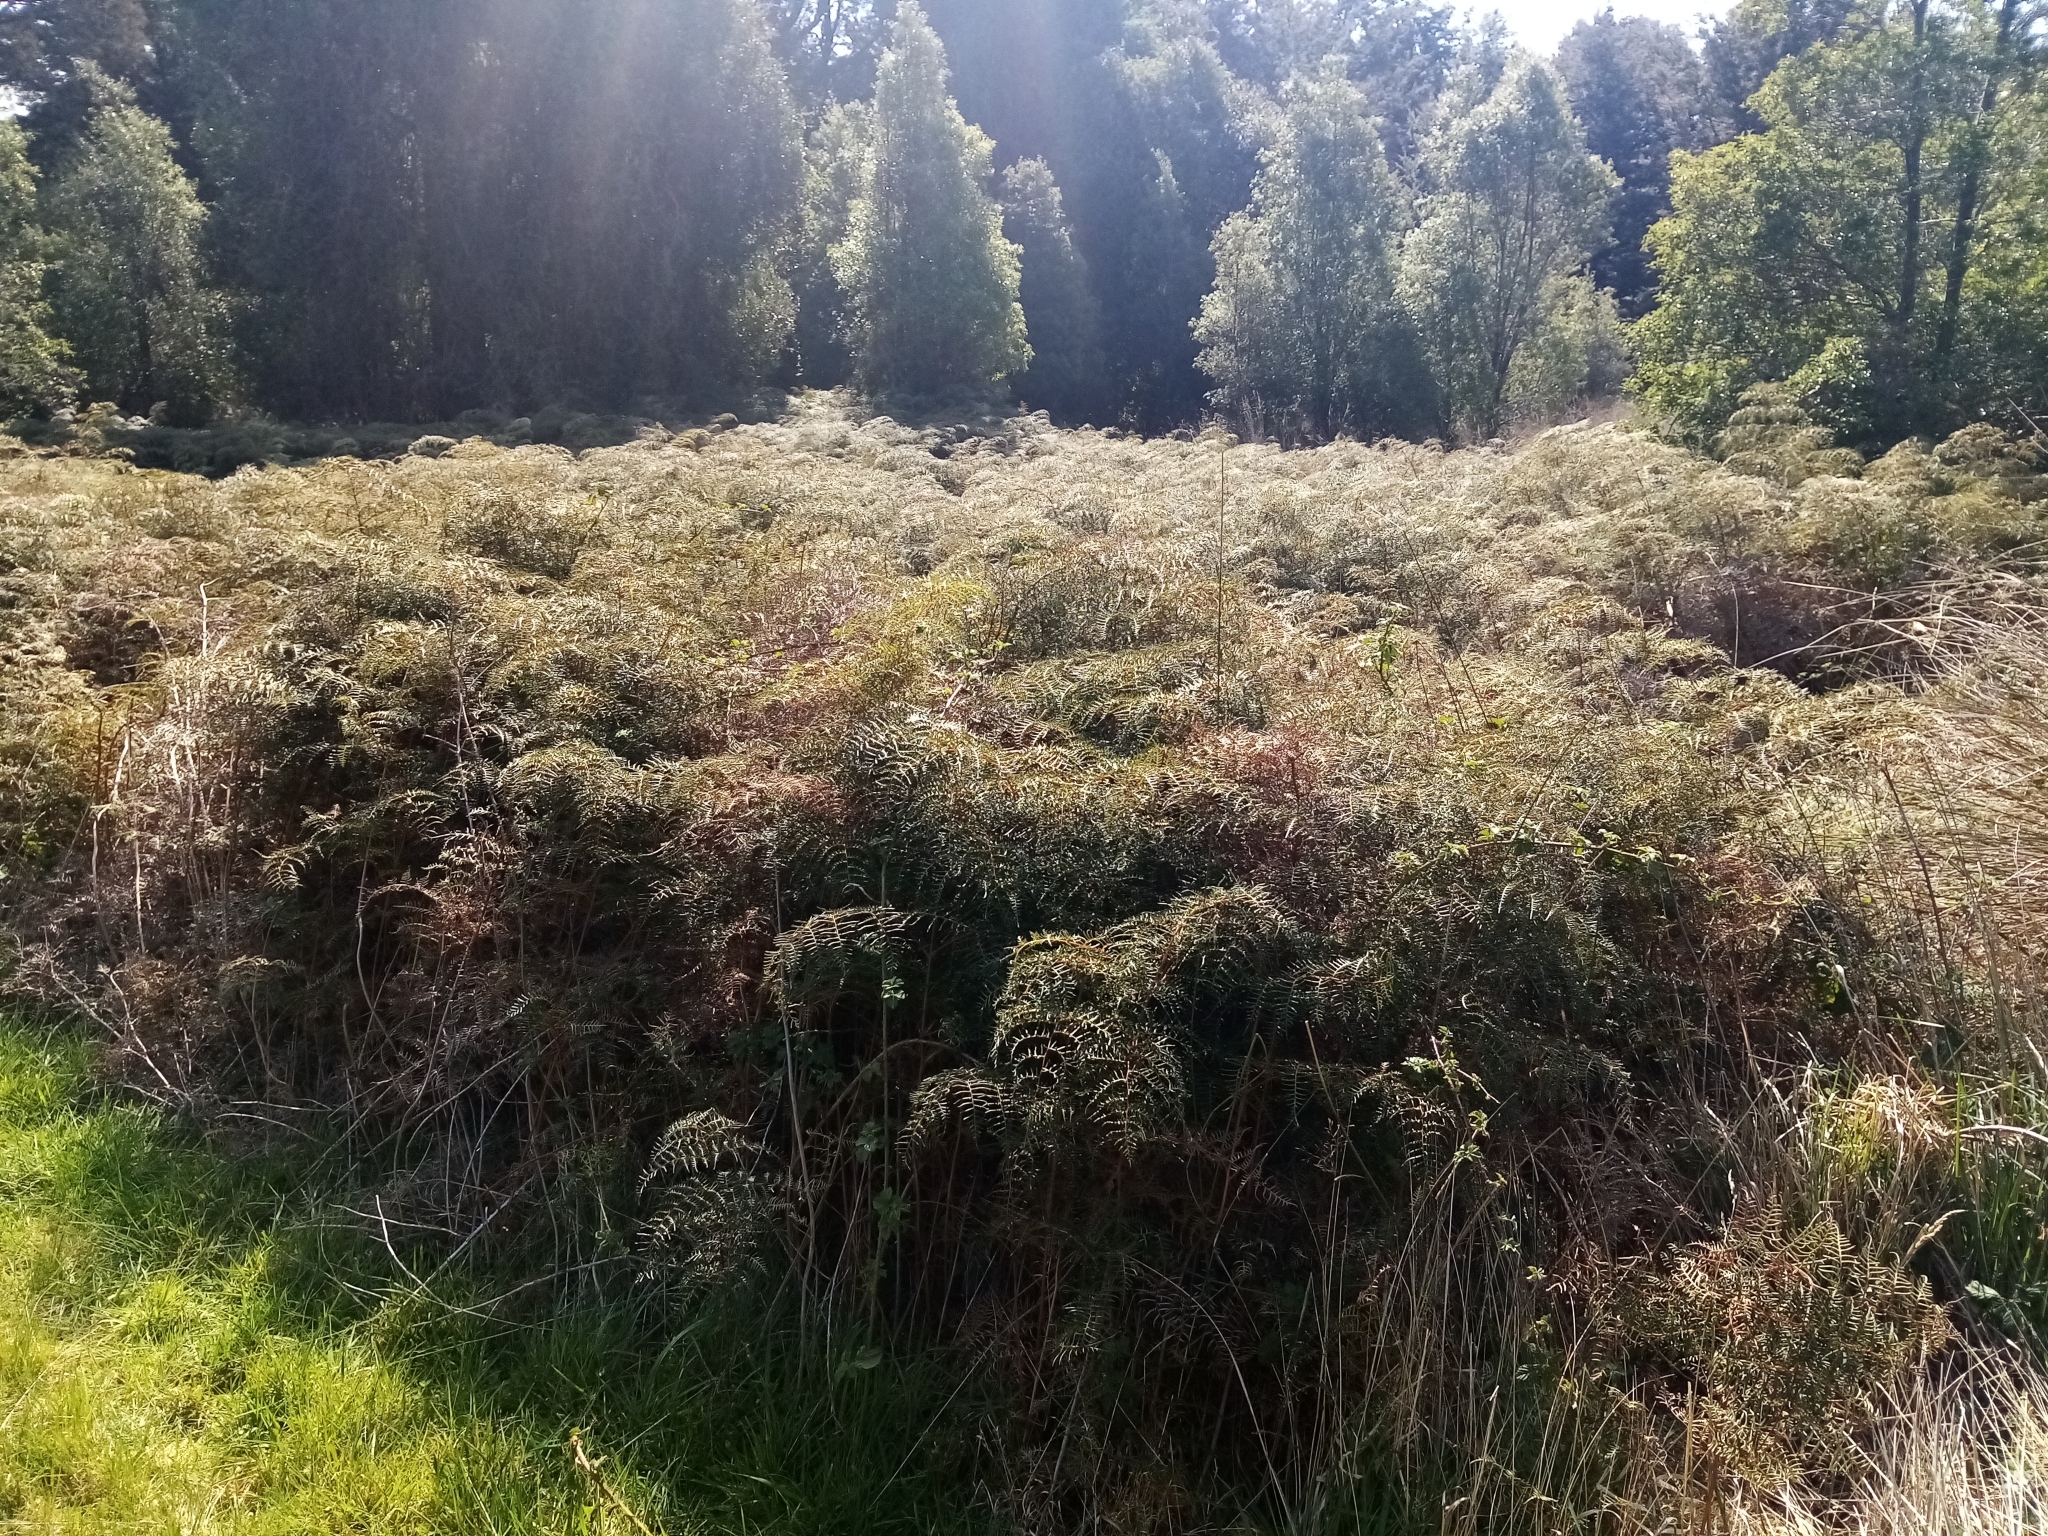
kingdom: Plantae
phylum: Tracheophyta
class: Polypodiopsida
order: Polypodiales
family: Dennstaedtiaceae
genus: Pteridium
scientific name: Pteridium esculentum
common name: Bracken fern
